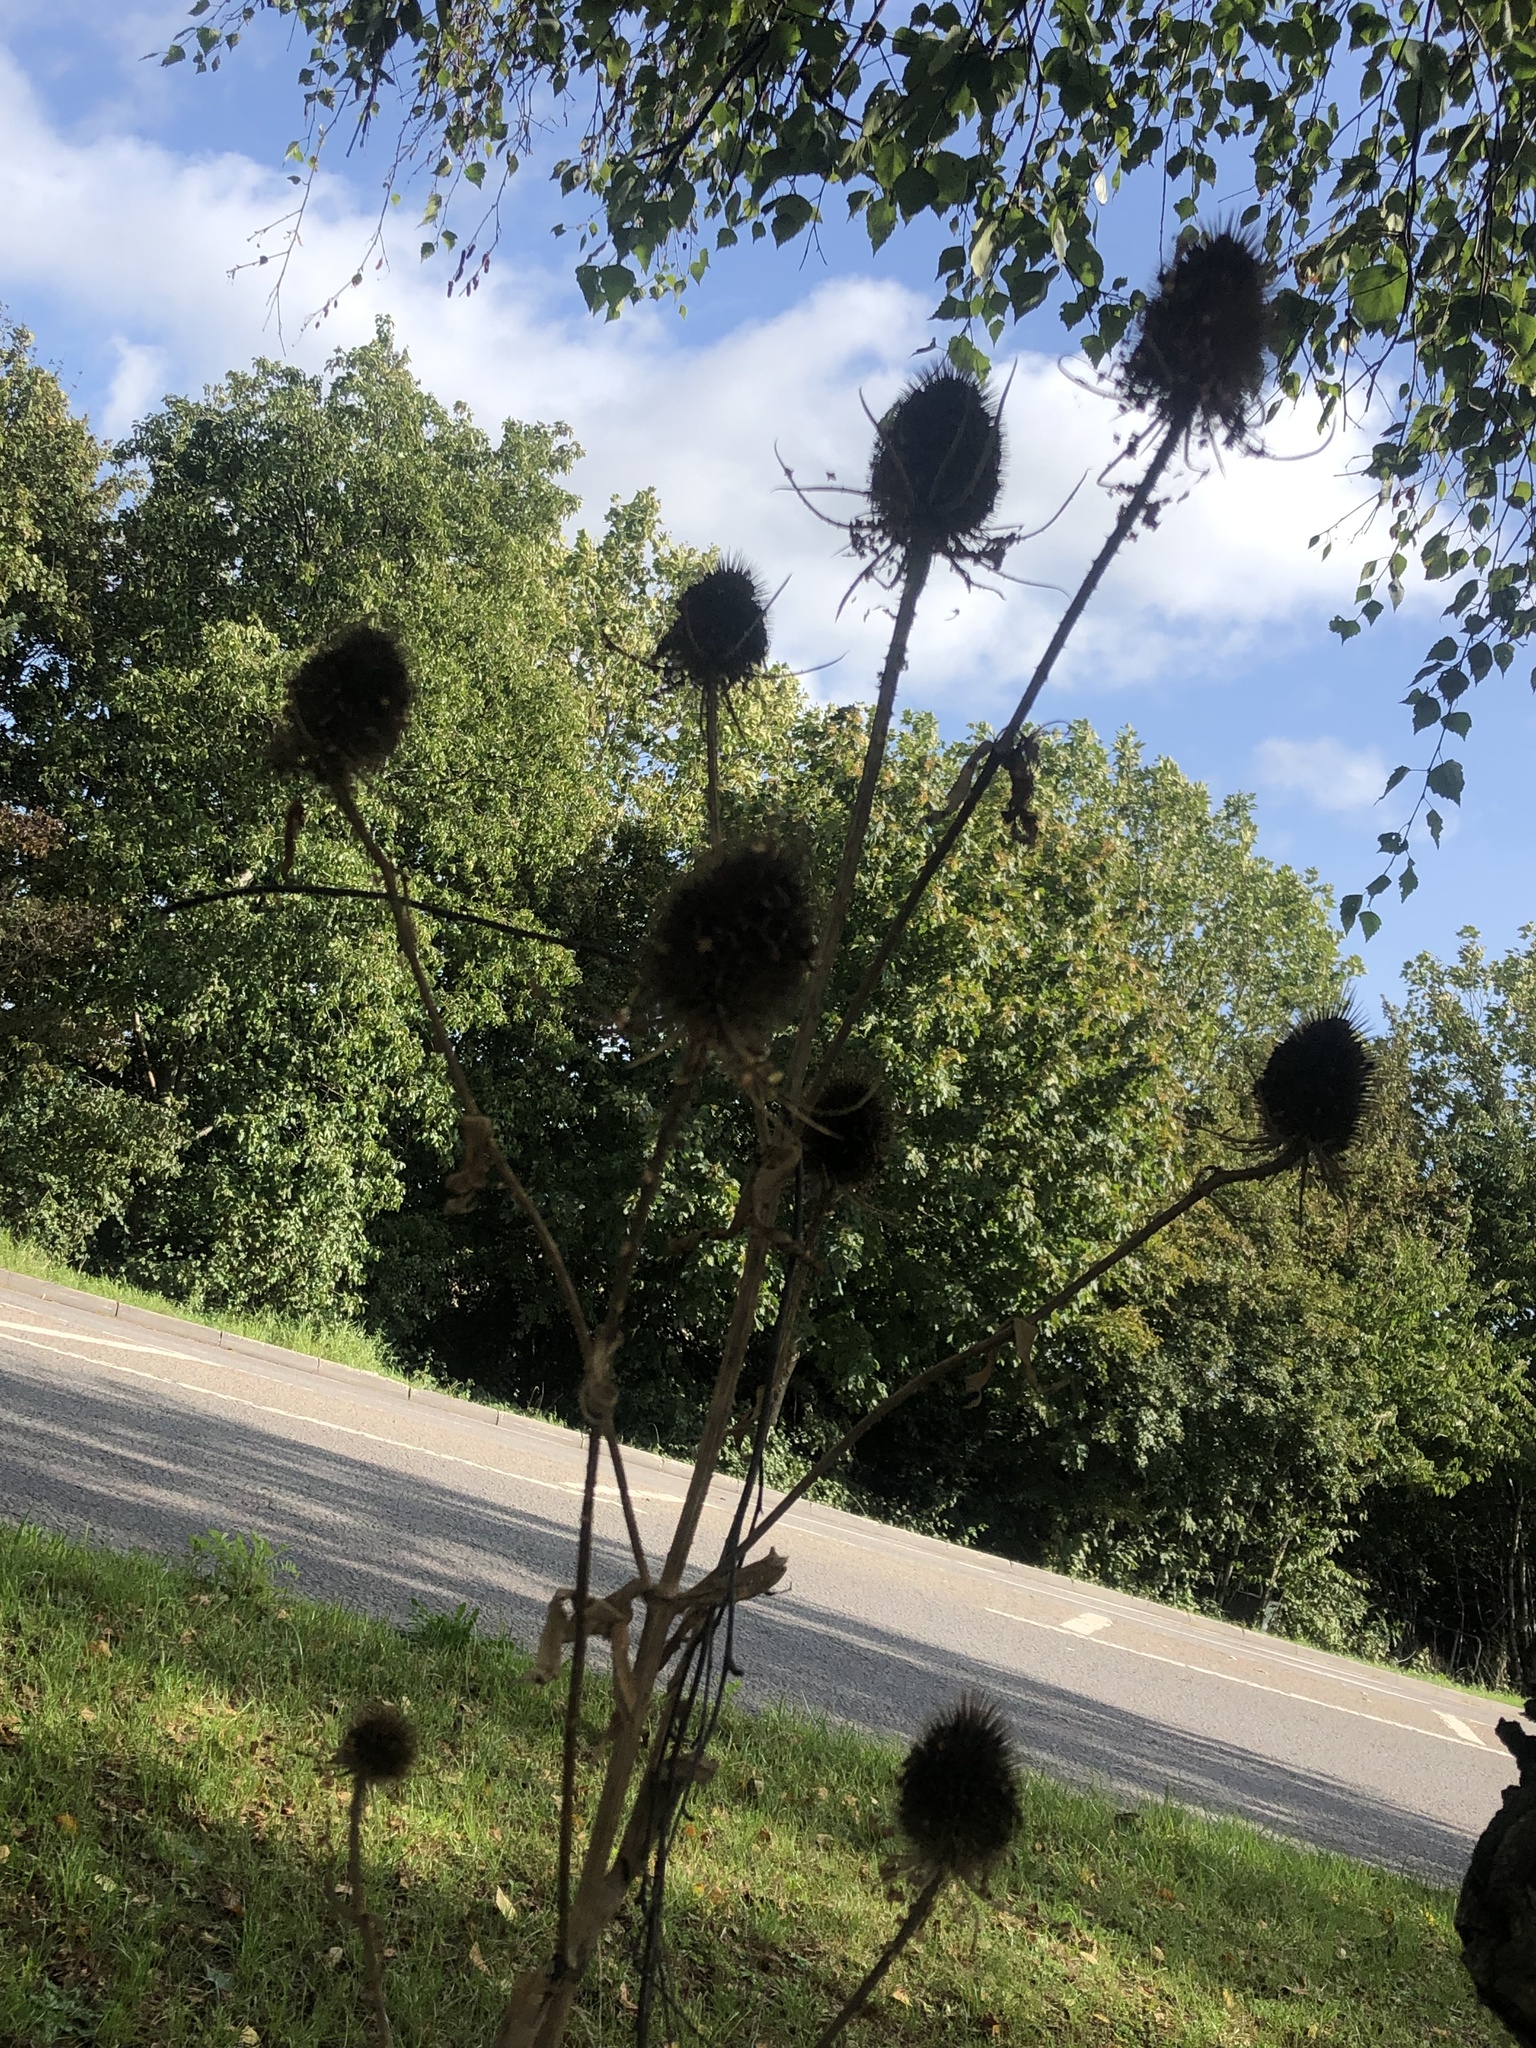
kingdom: Plantae
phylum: Tracheophyta
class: Magnoliopsida
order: Dipsacales
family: Caprifoliaceae
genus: Dipsacus
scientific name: Dipsacus fullonum
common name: Teasel
